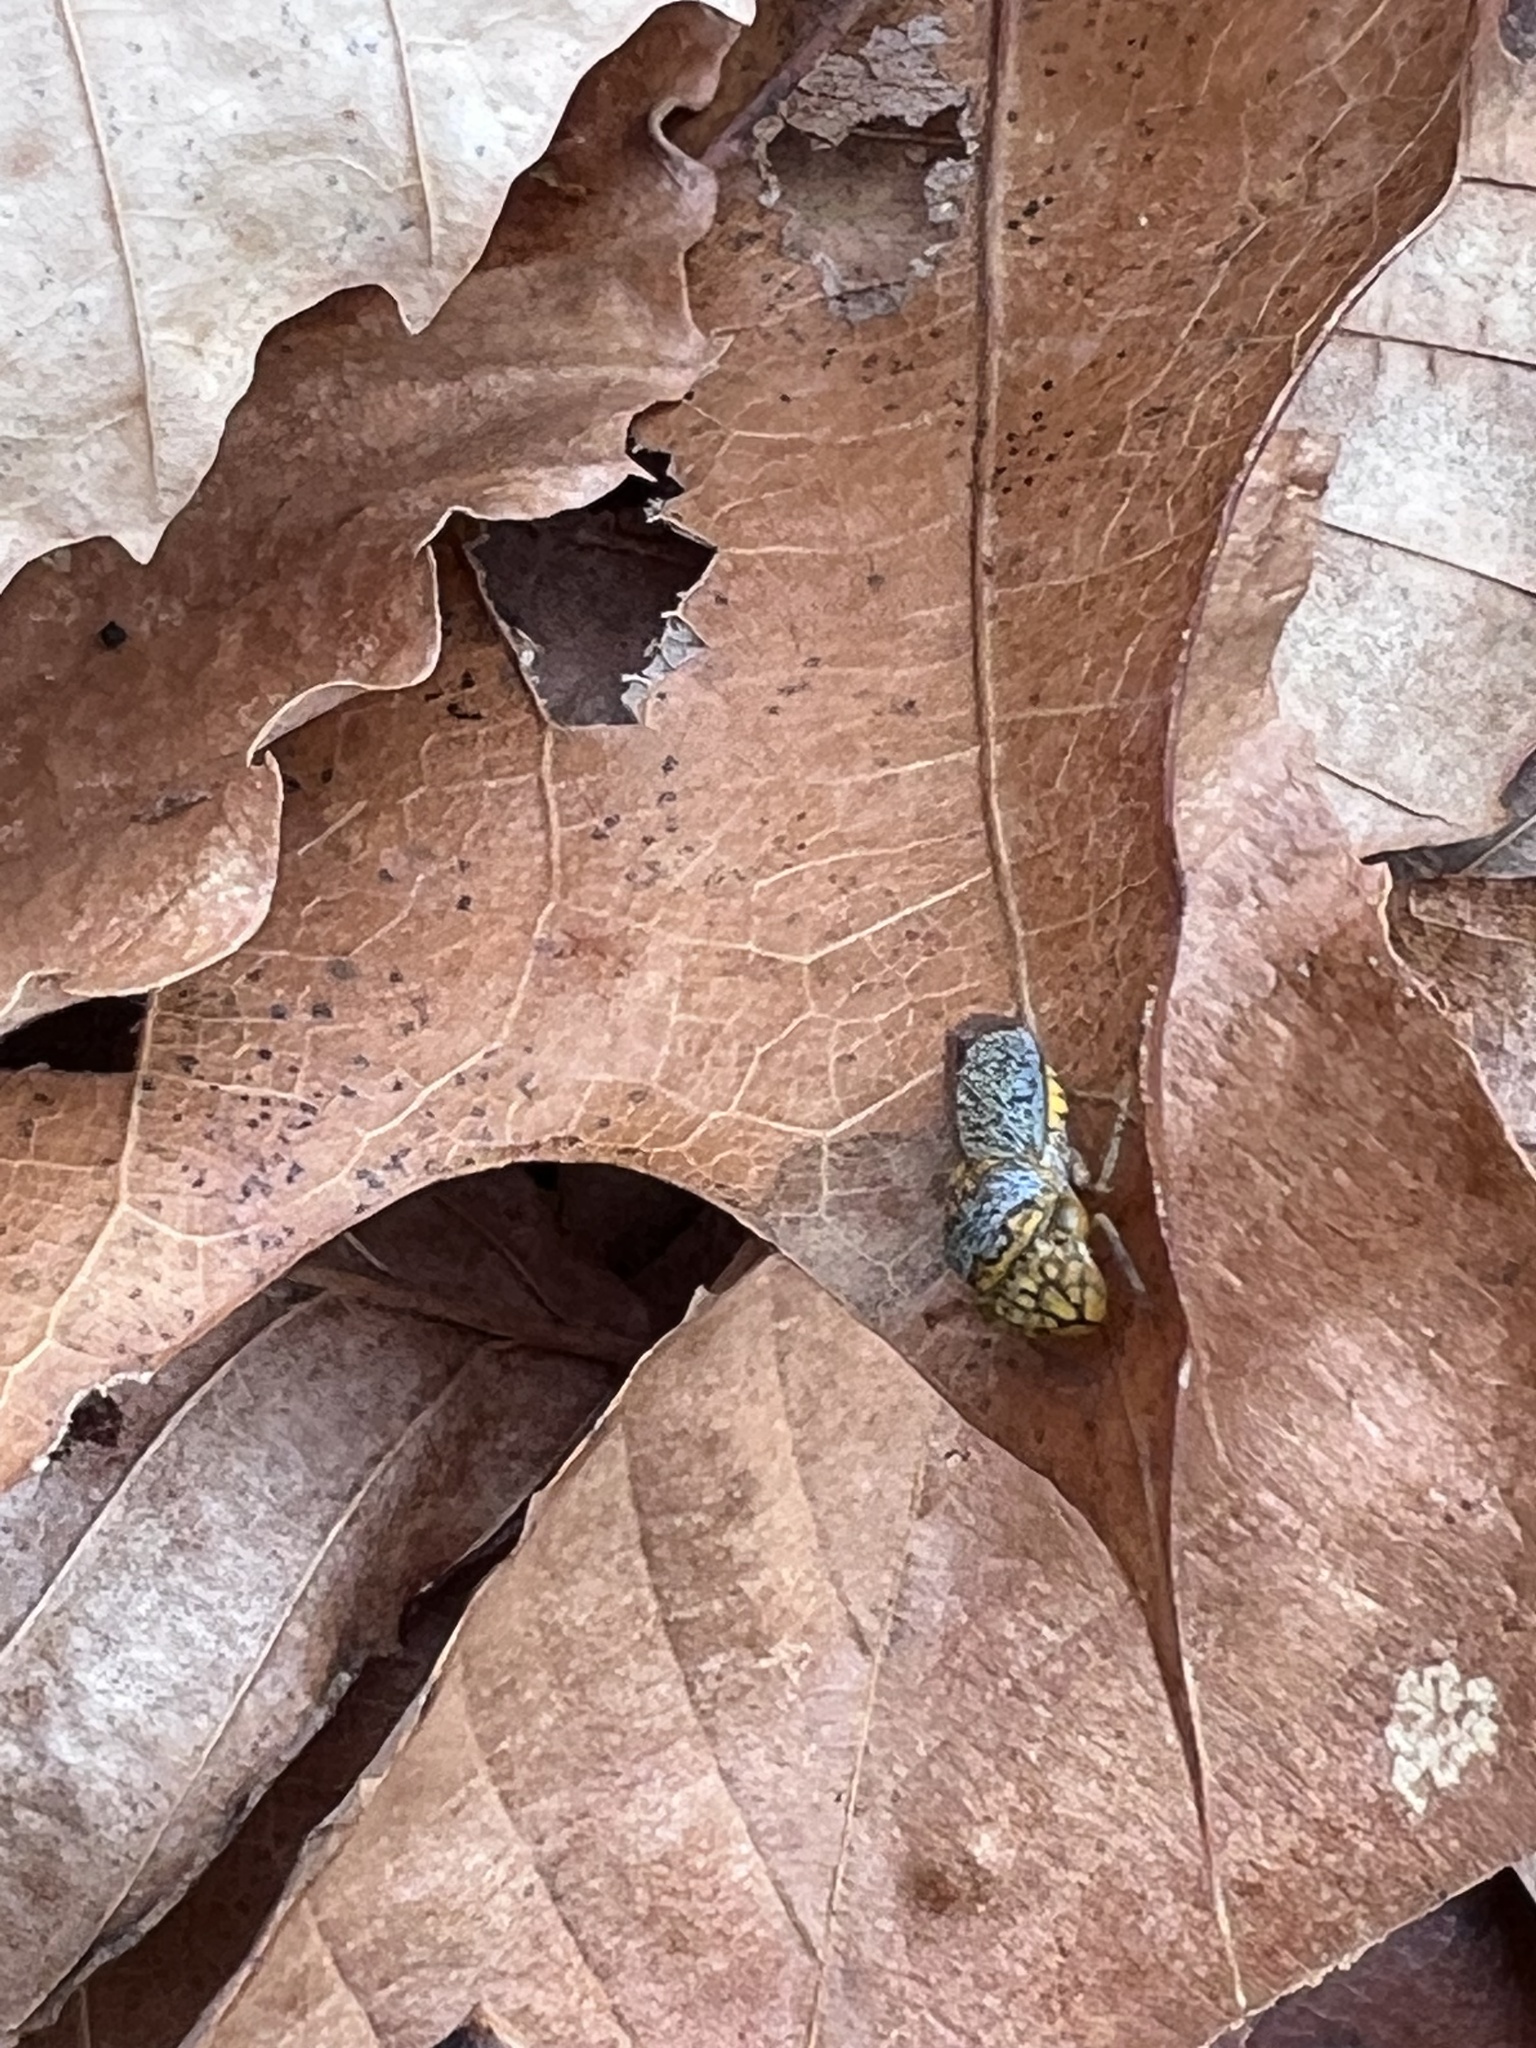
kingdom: Animalia
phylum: Arthropoda
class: Insecta
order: Hemiptera
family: Cicadellidae
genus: Oncometopia
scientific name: Oncometopia orbona
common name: Broad-headed sharpshooter
